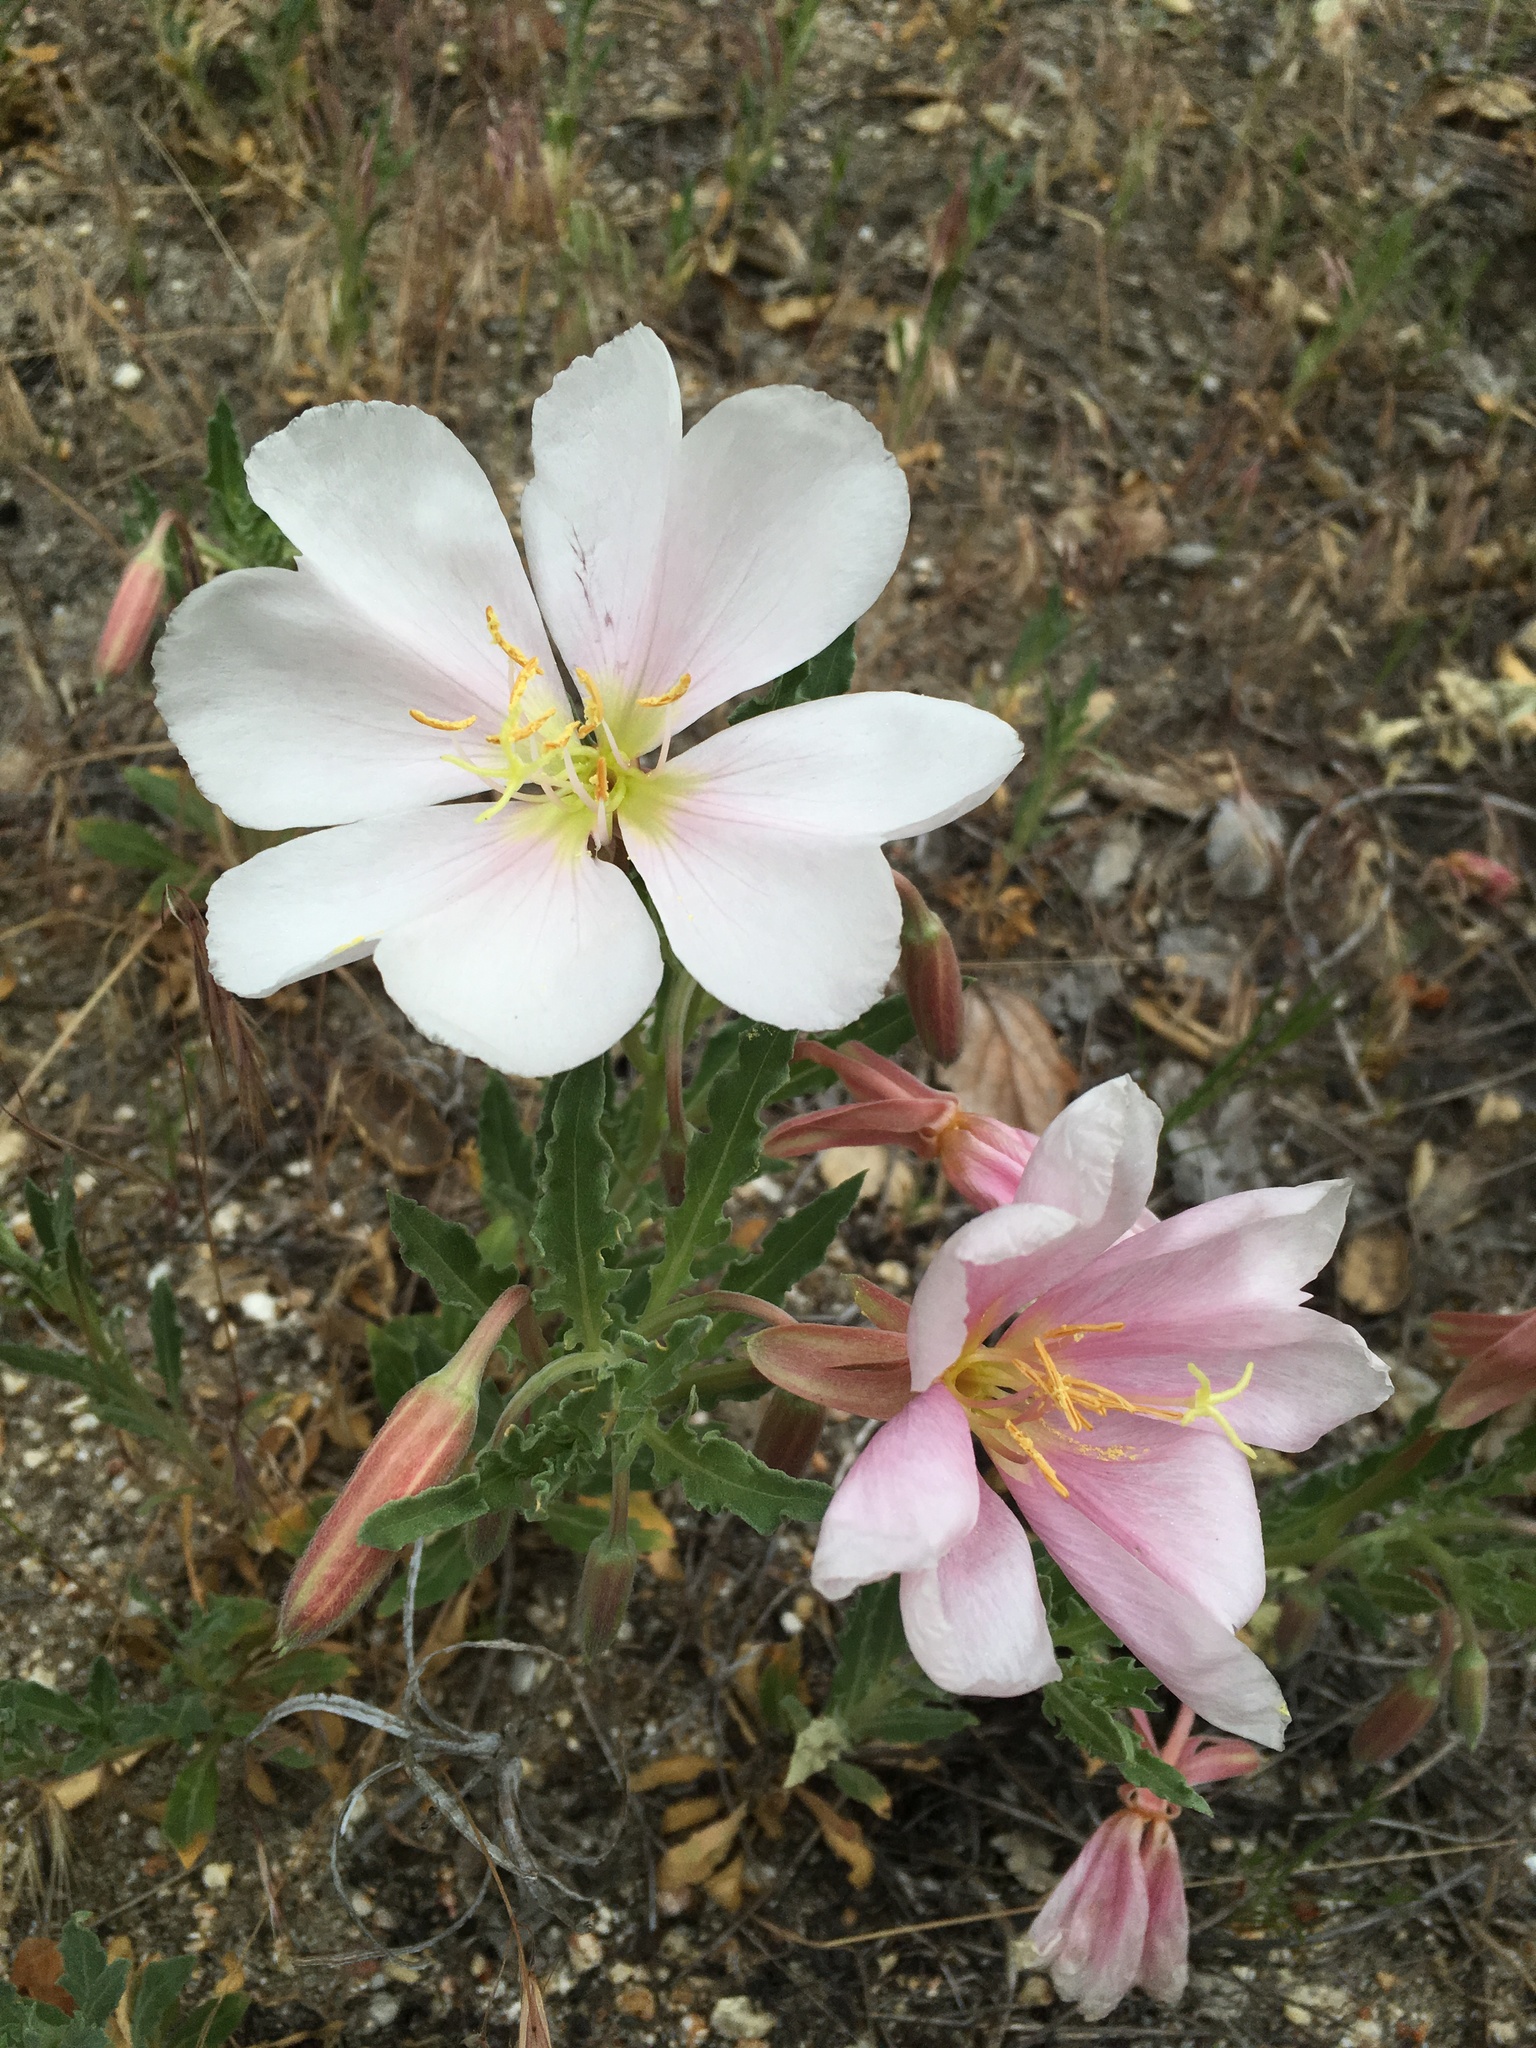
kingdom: Plantae
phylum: Tracheophyta
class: Magnoliopsida
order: Myrtales
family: Onagraceae
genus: Oenothera
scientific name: Oenothera avita
